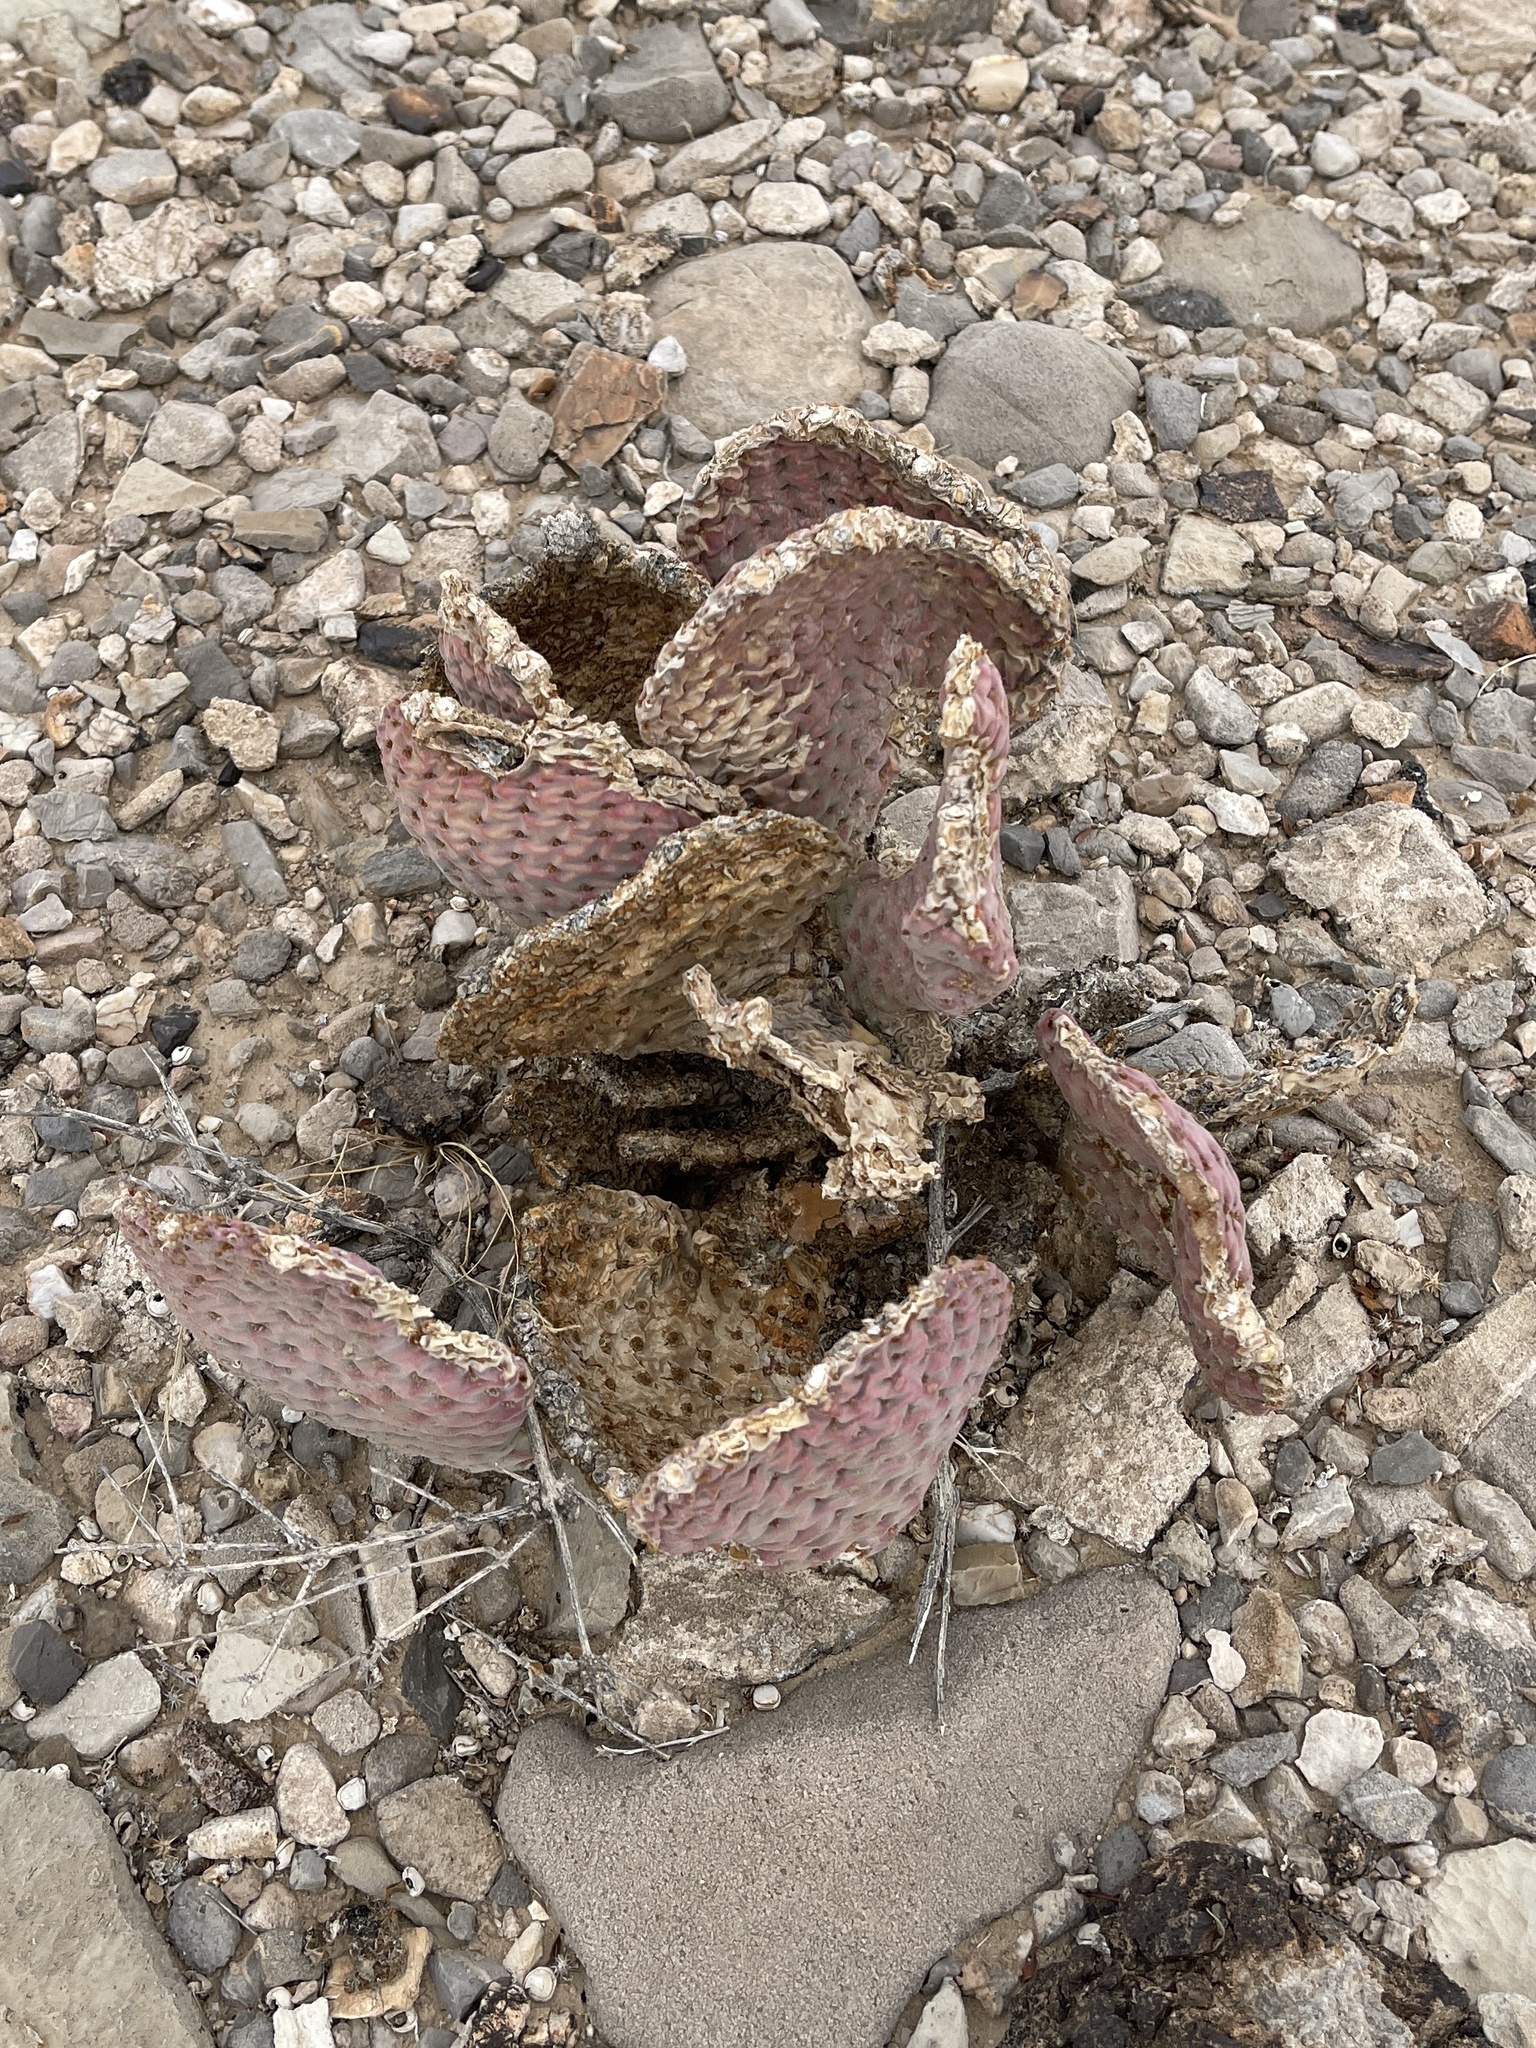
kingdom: Plantae
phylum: Tracheophyta
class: Magnoliopsida
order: Caryophyllales
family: Cactaceae
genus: Opuntia
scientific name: Opuntia basilaris
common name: Beavertail prickly-pear
